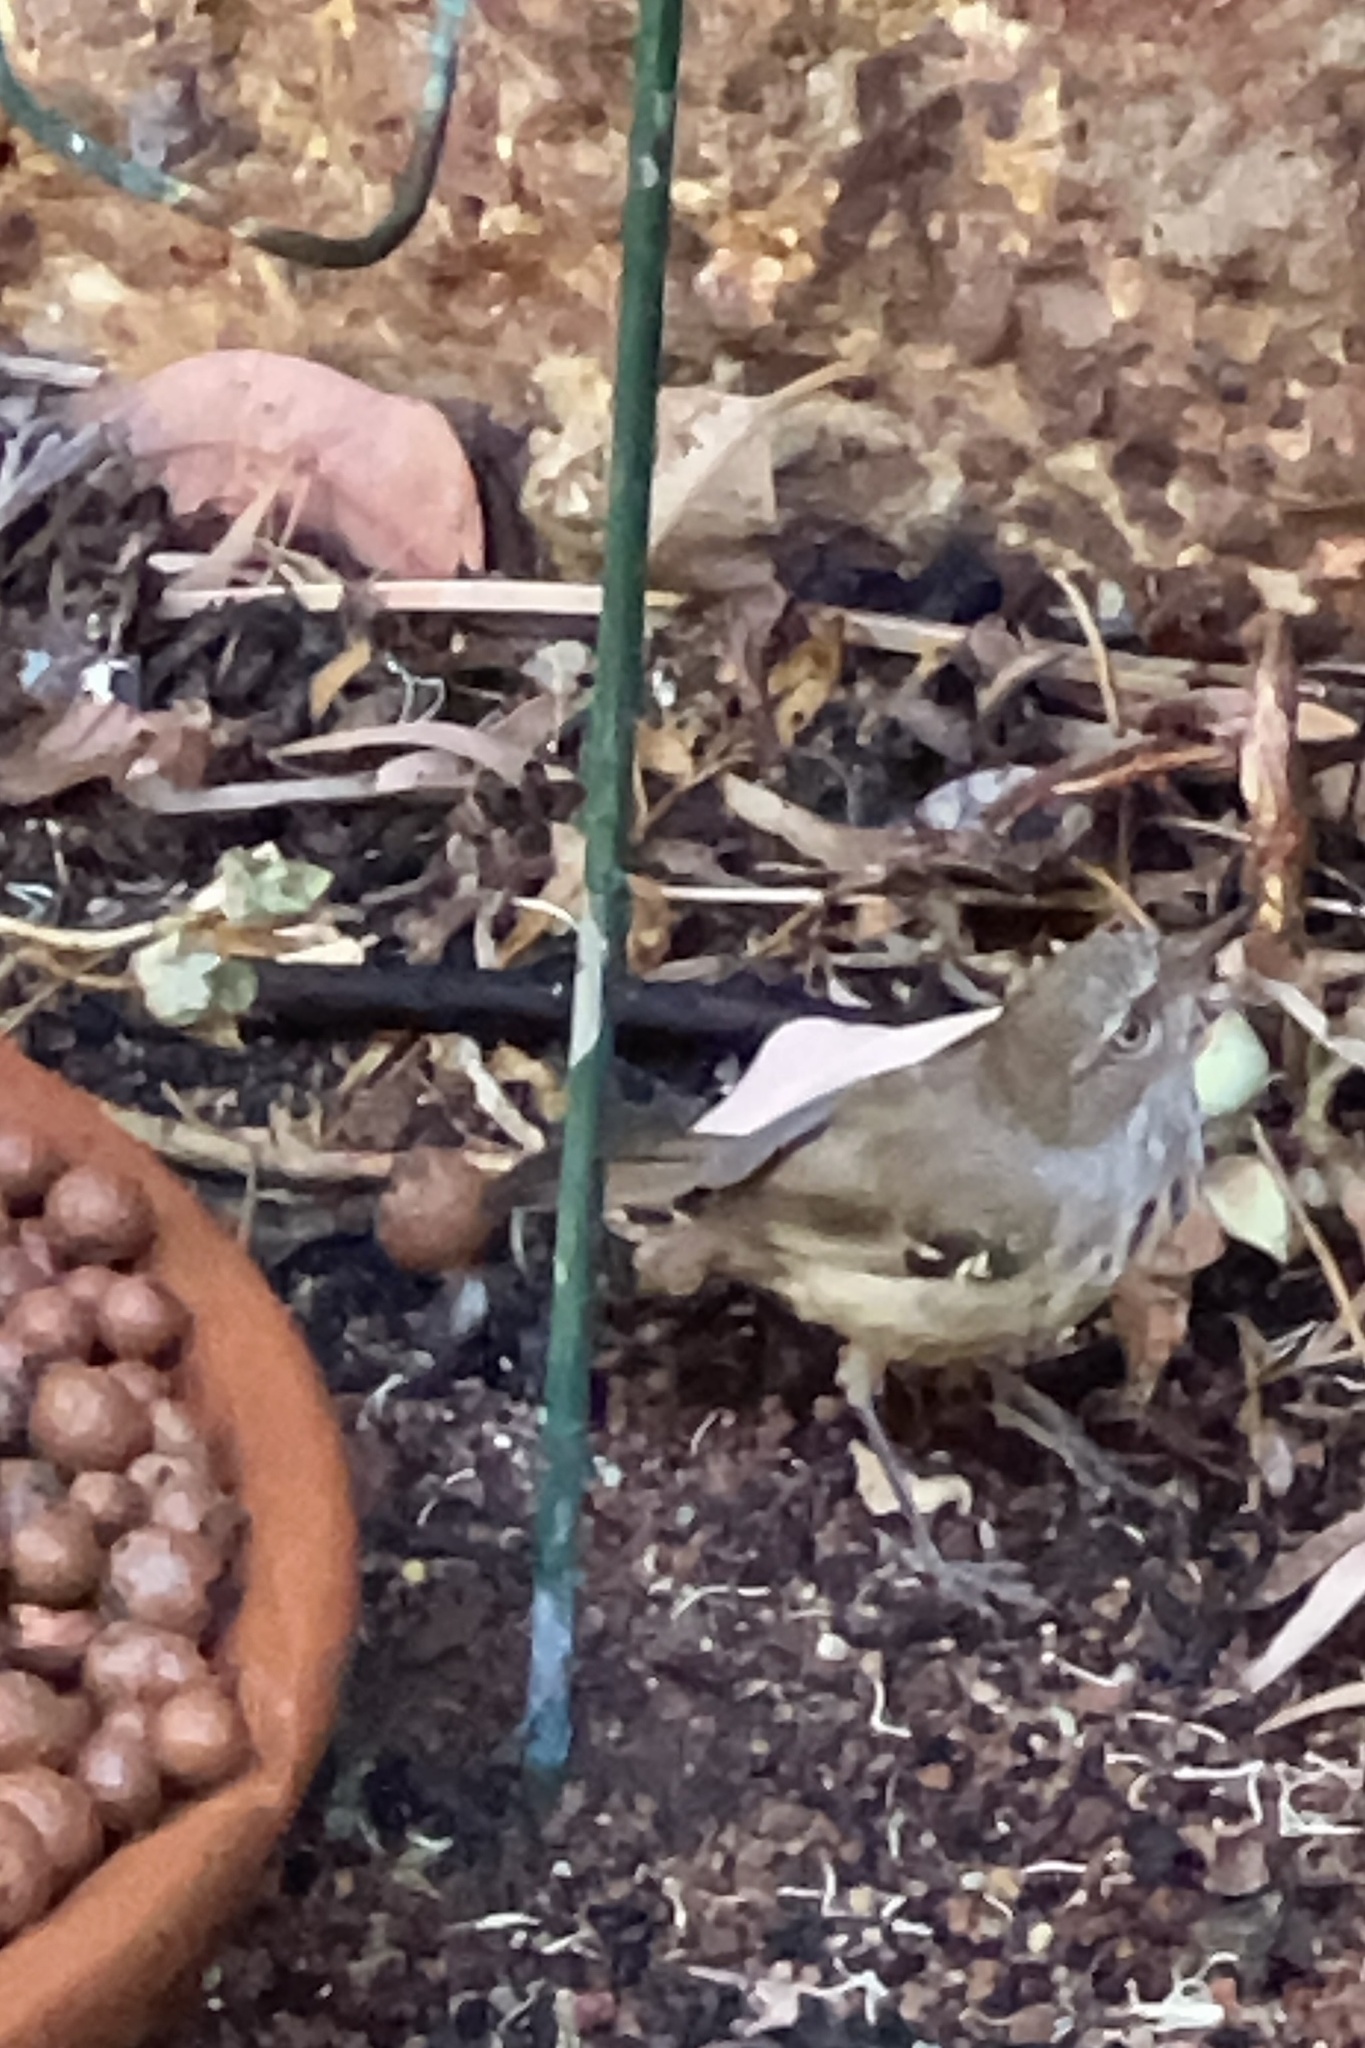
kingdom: Animalia
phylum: Chordata
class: Aves
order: Passeriformes
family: Acanthizidae
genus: Sericornis
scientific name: Sericornis maculatus
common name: Spotted scrubwren
